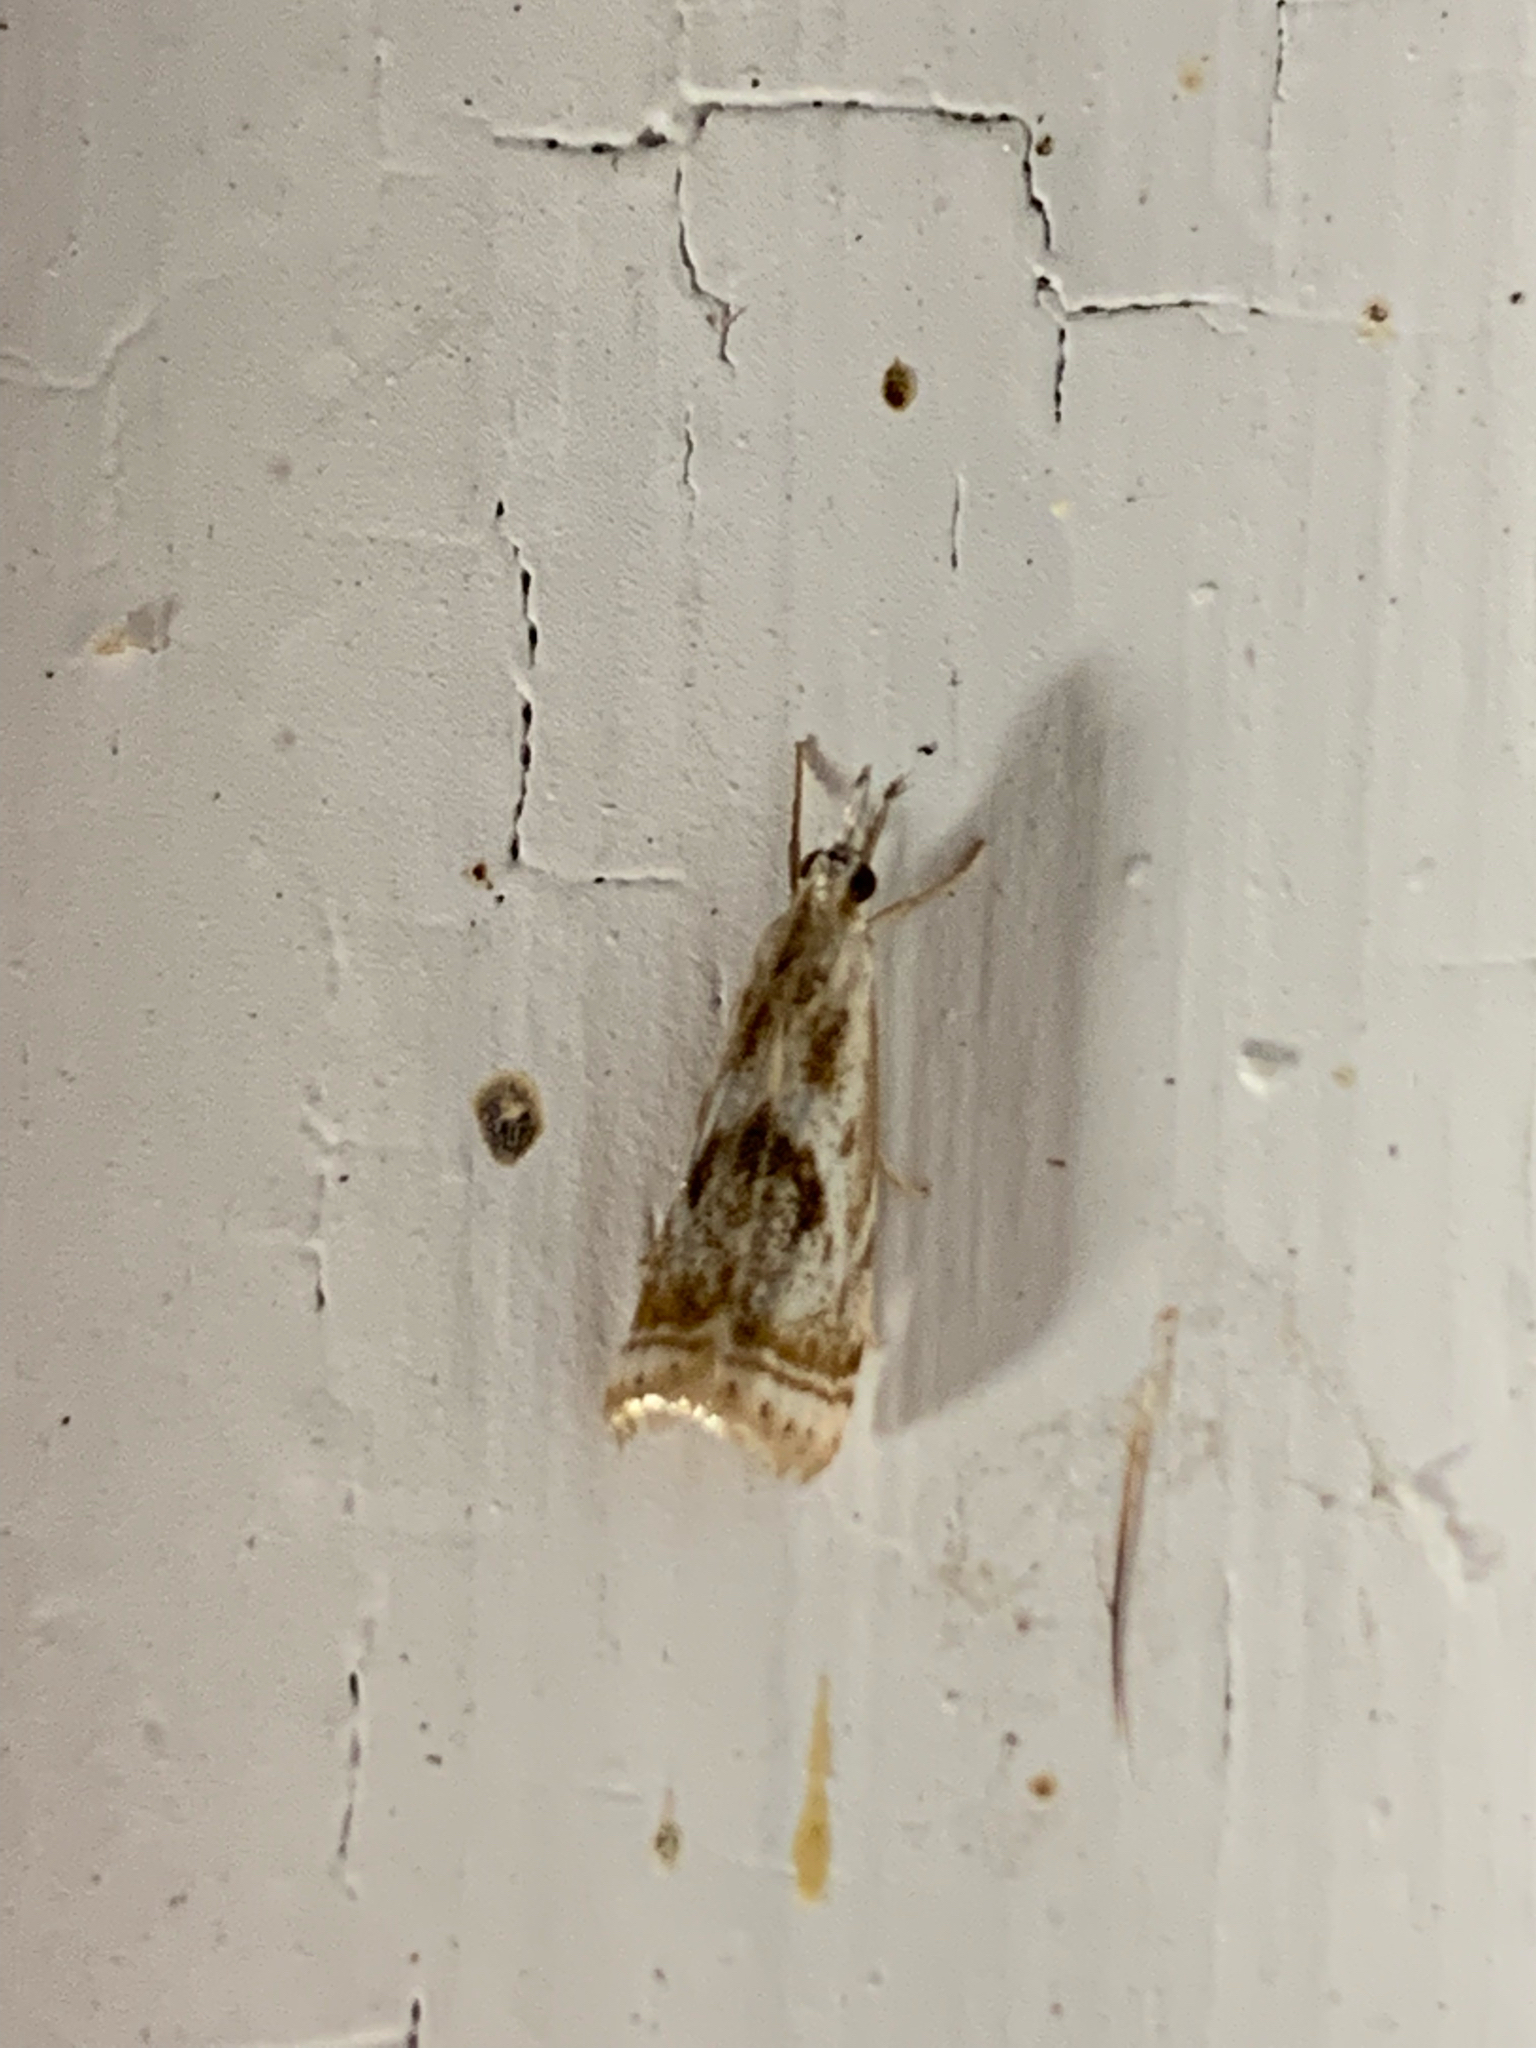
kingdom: Animalia
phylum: Arthropoda
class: Insecta
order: Lepidoptera
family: Crambidae
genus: Microcrambus
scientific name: Microcrambus elegans
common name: Elegant grass-veneer
